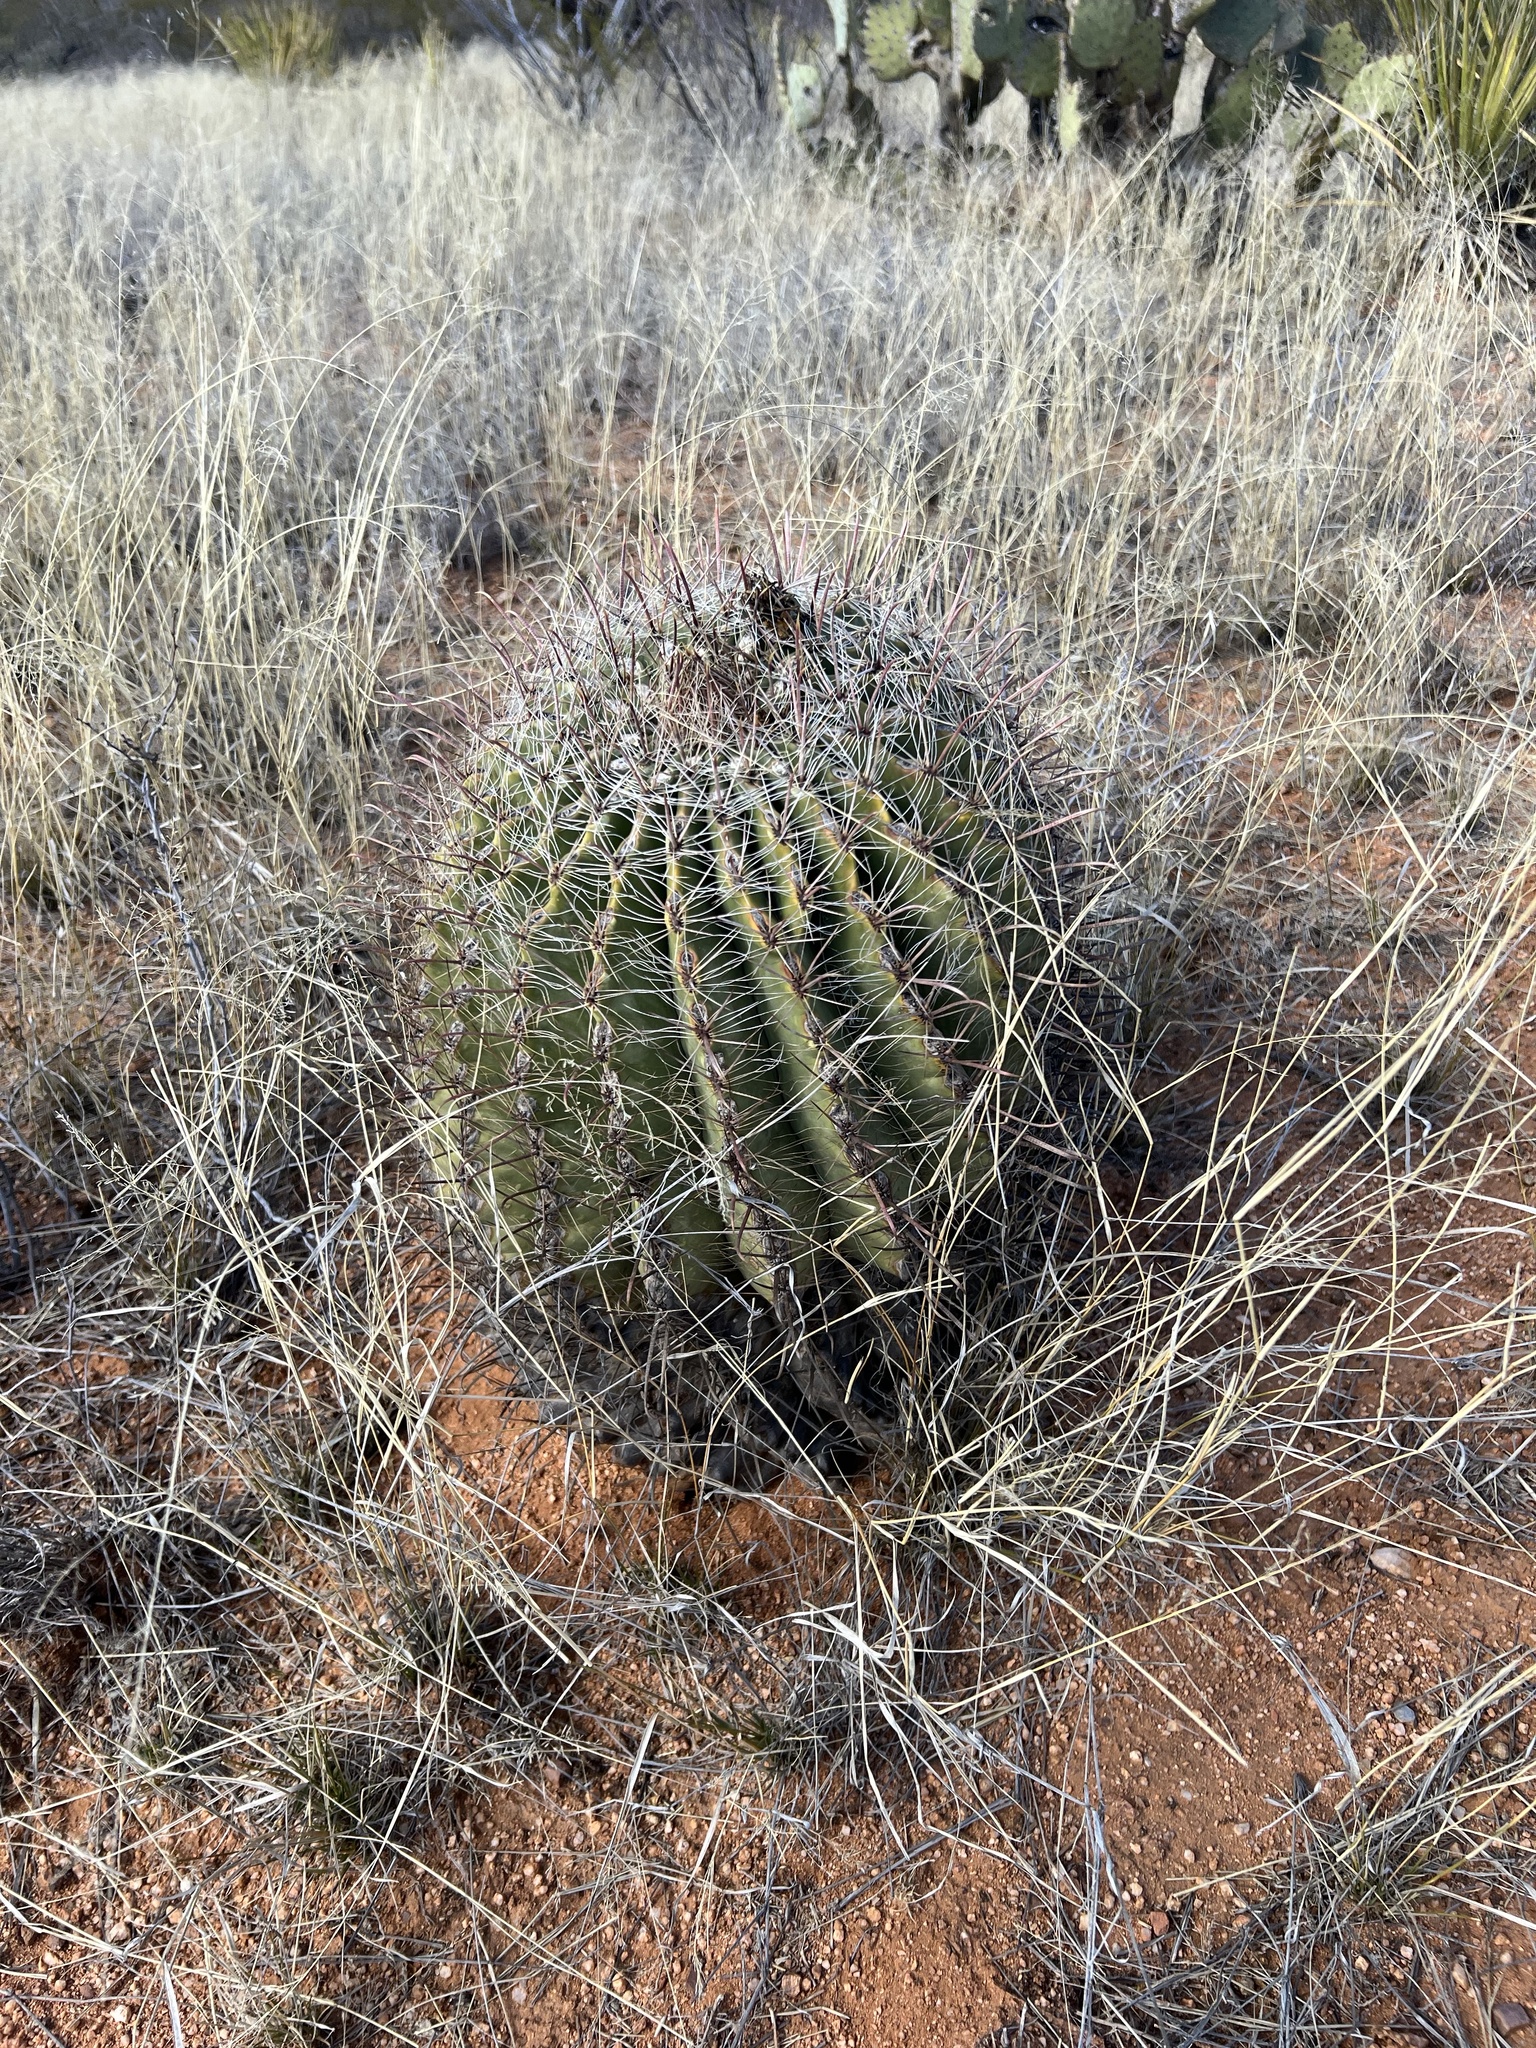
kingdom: Plantae
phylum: Tracheophyta
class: Magnoliopsida
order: Caryophyllales
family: Cactaceae
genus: Ferocactus
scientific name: Ferocactus wislizeni
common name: Candy barrel cactus
